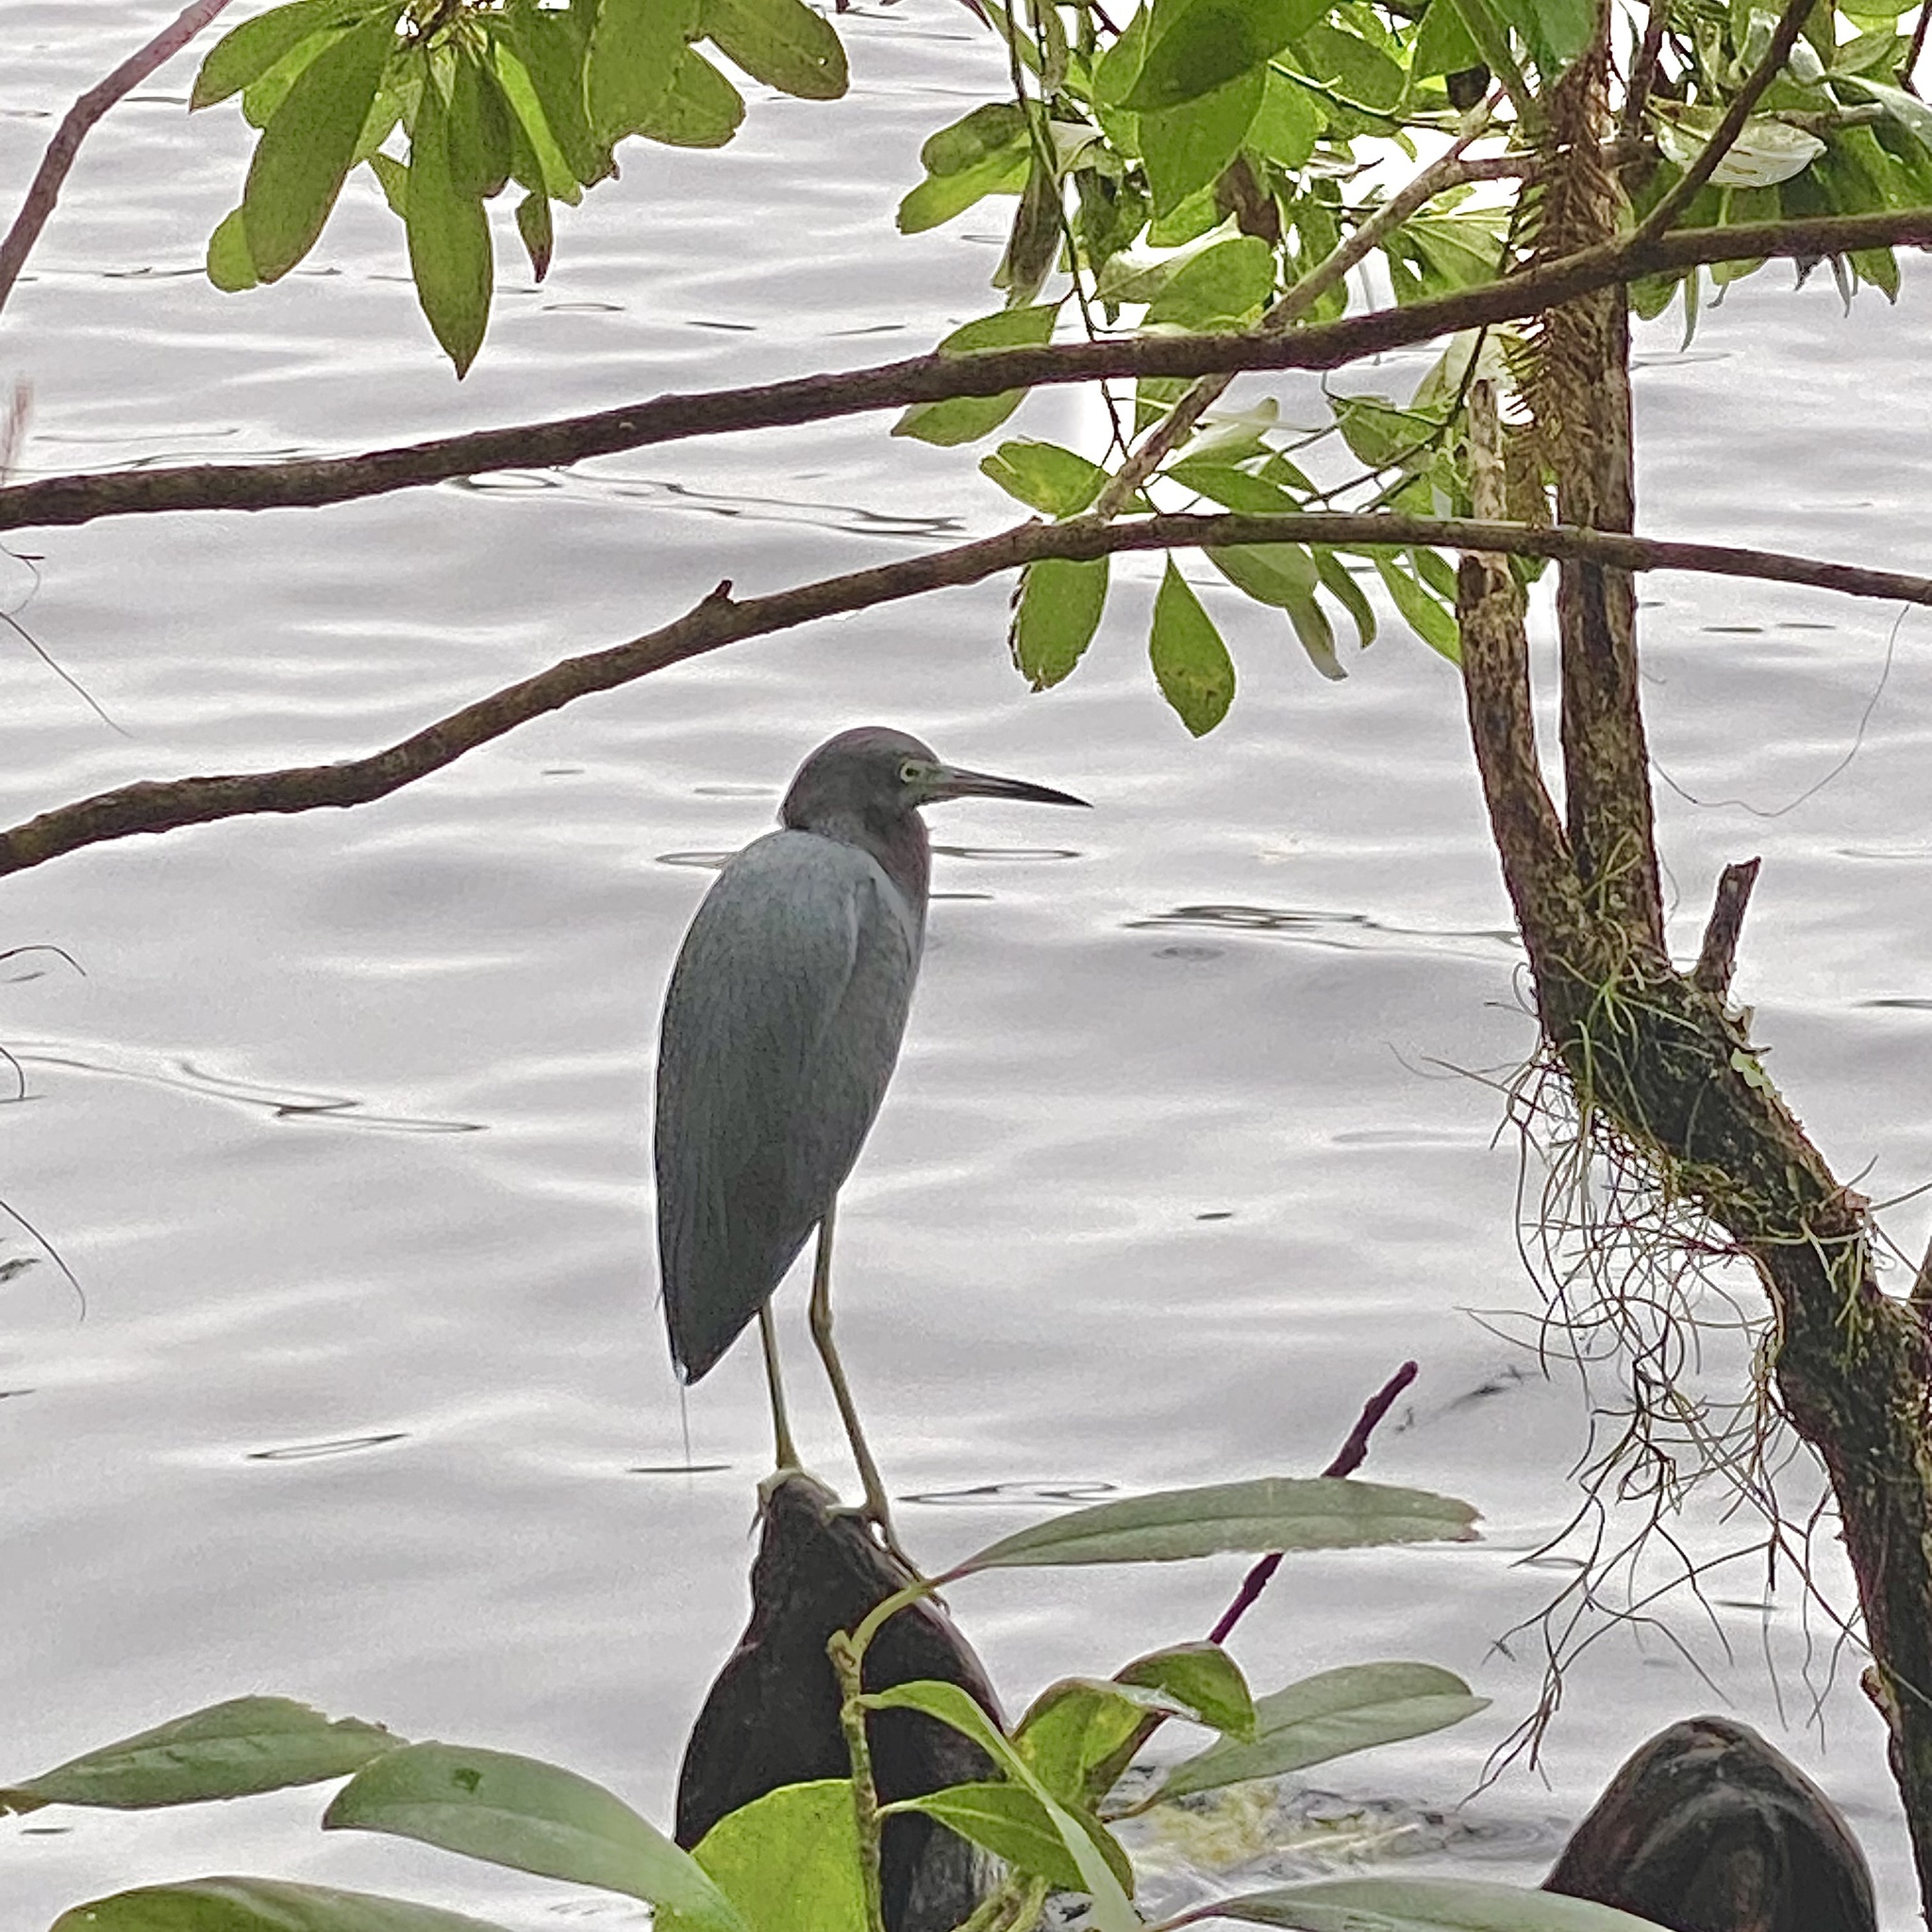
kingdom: Animalia
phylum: Chordata
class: Aves
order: Pelecaniformes
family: Ardeidae
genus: Egretta
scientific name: Egretta caerulea
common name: Little blue heron
